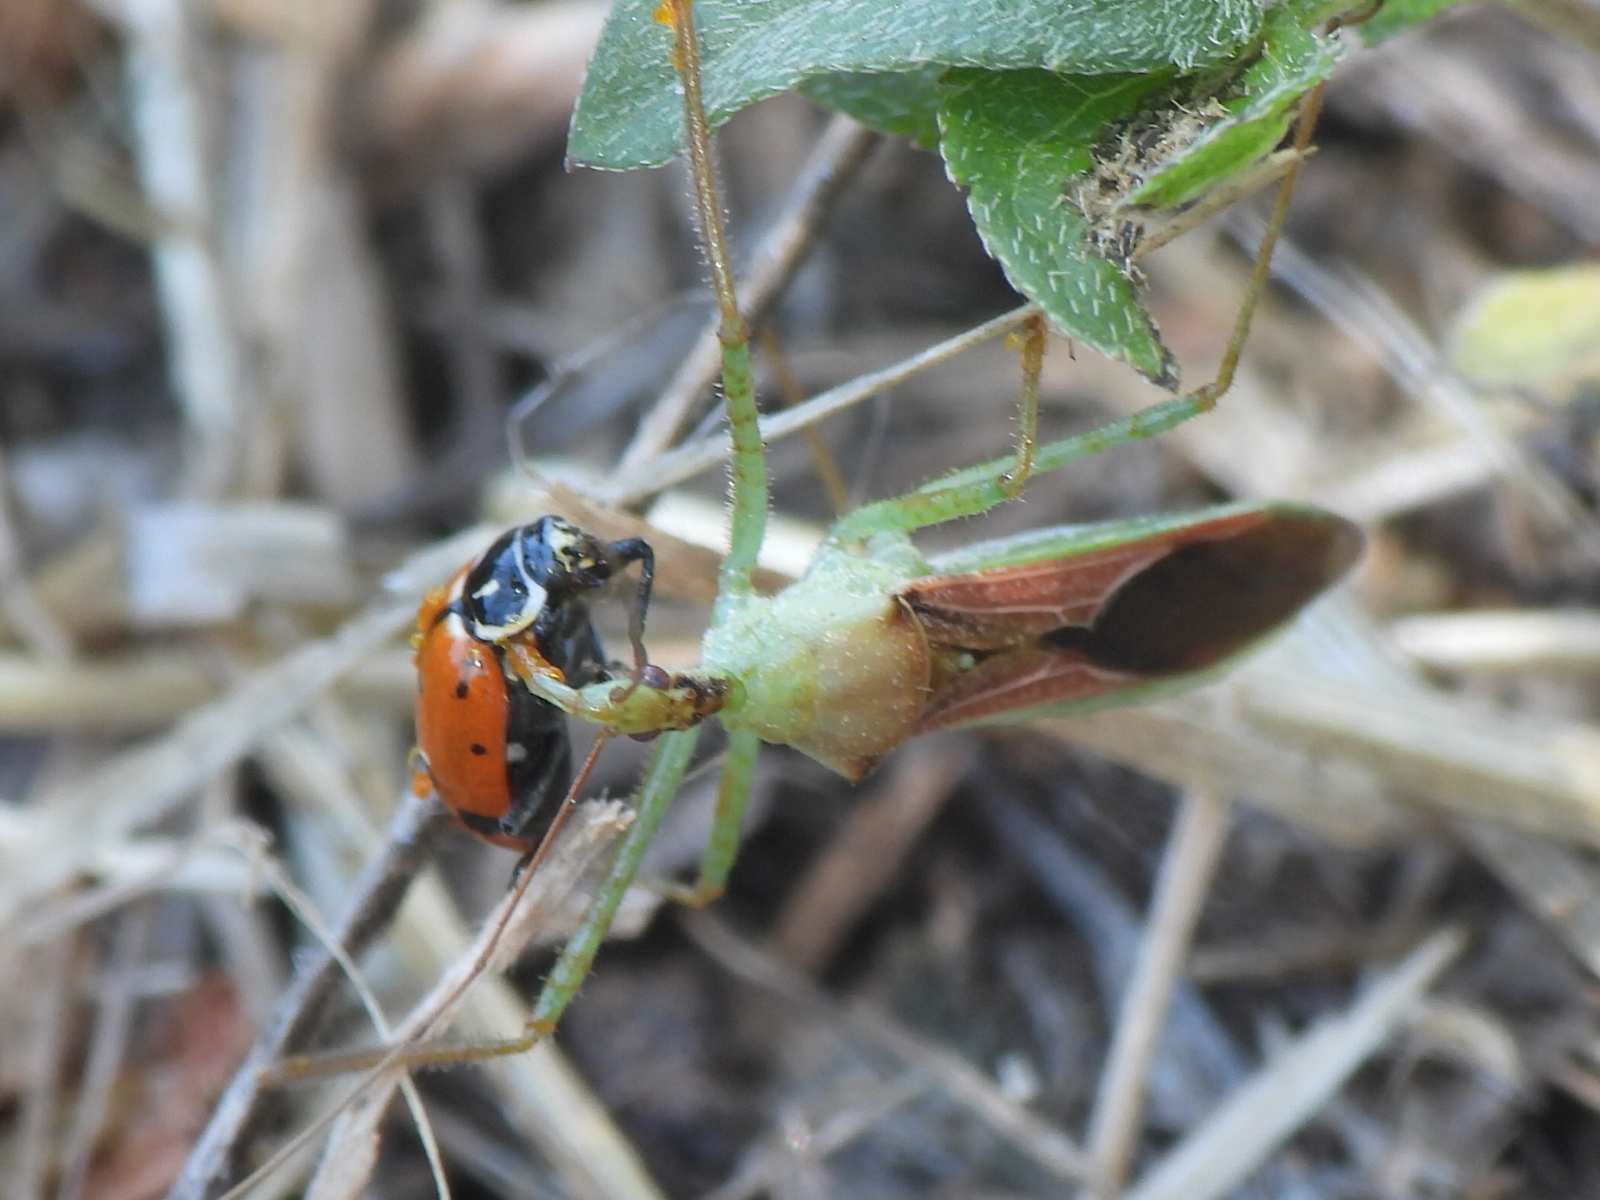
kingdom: Animalia
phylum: Arthropoda
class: Insecta
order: Hemiptera
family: Reduviidae
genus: Zelus
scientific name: Zelus renardii
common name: Assassin bug
